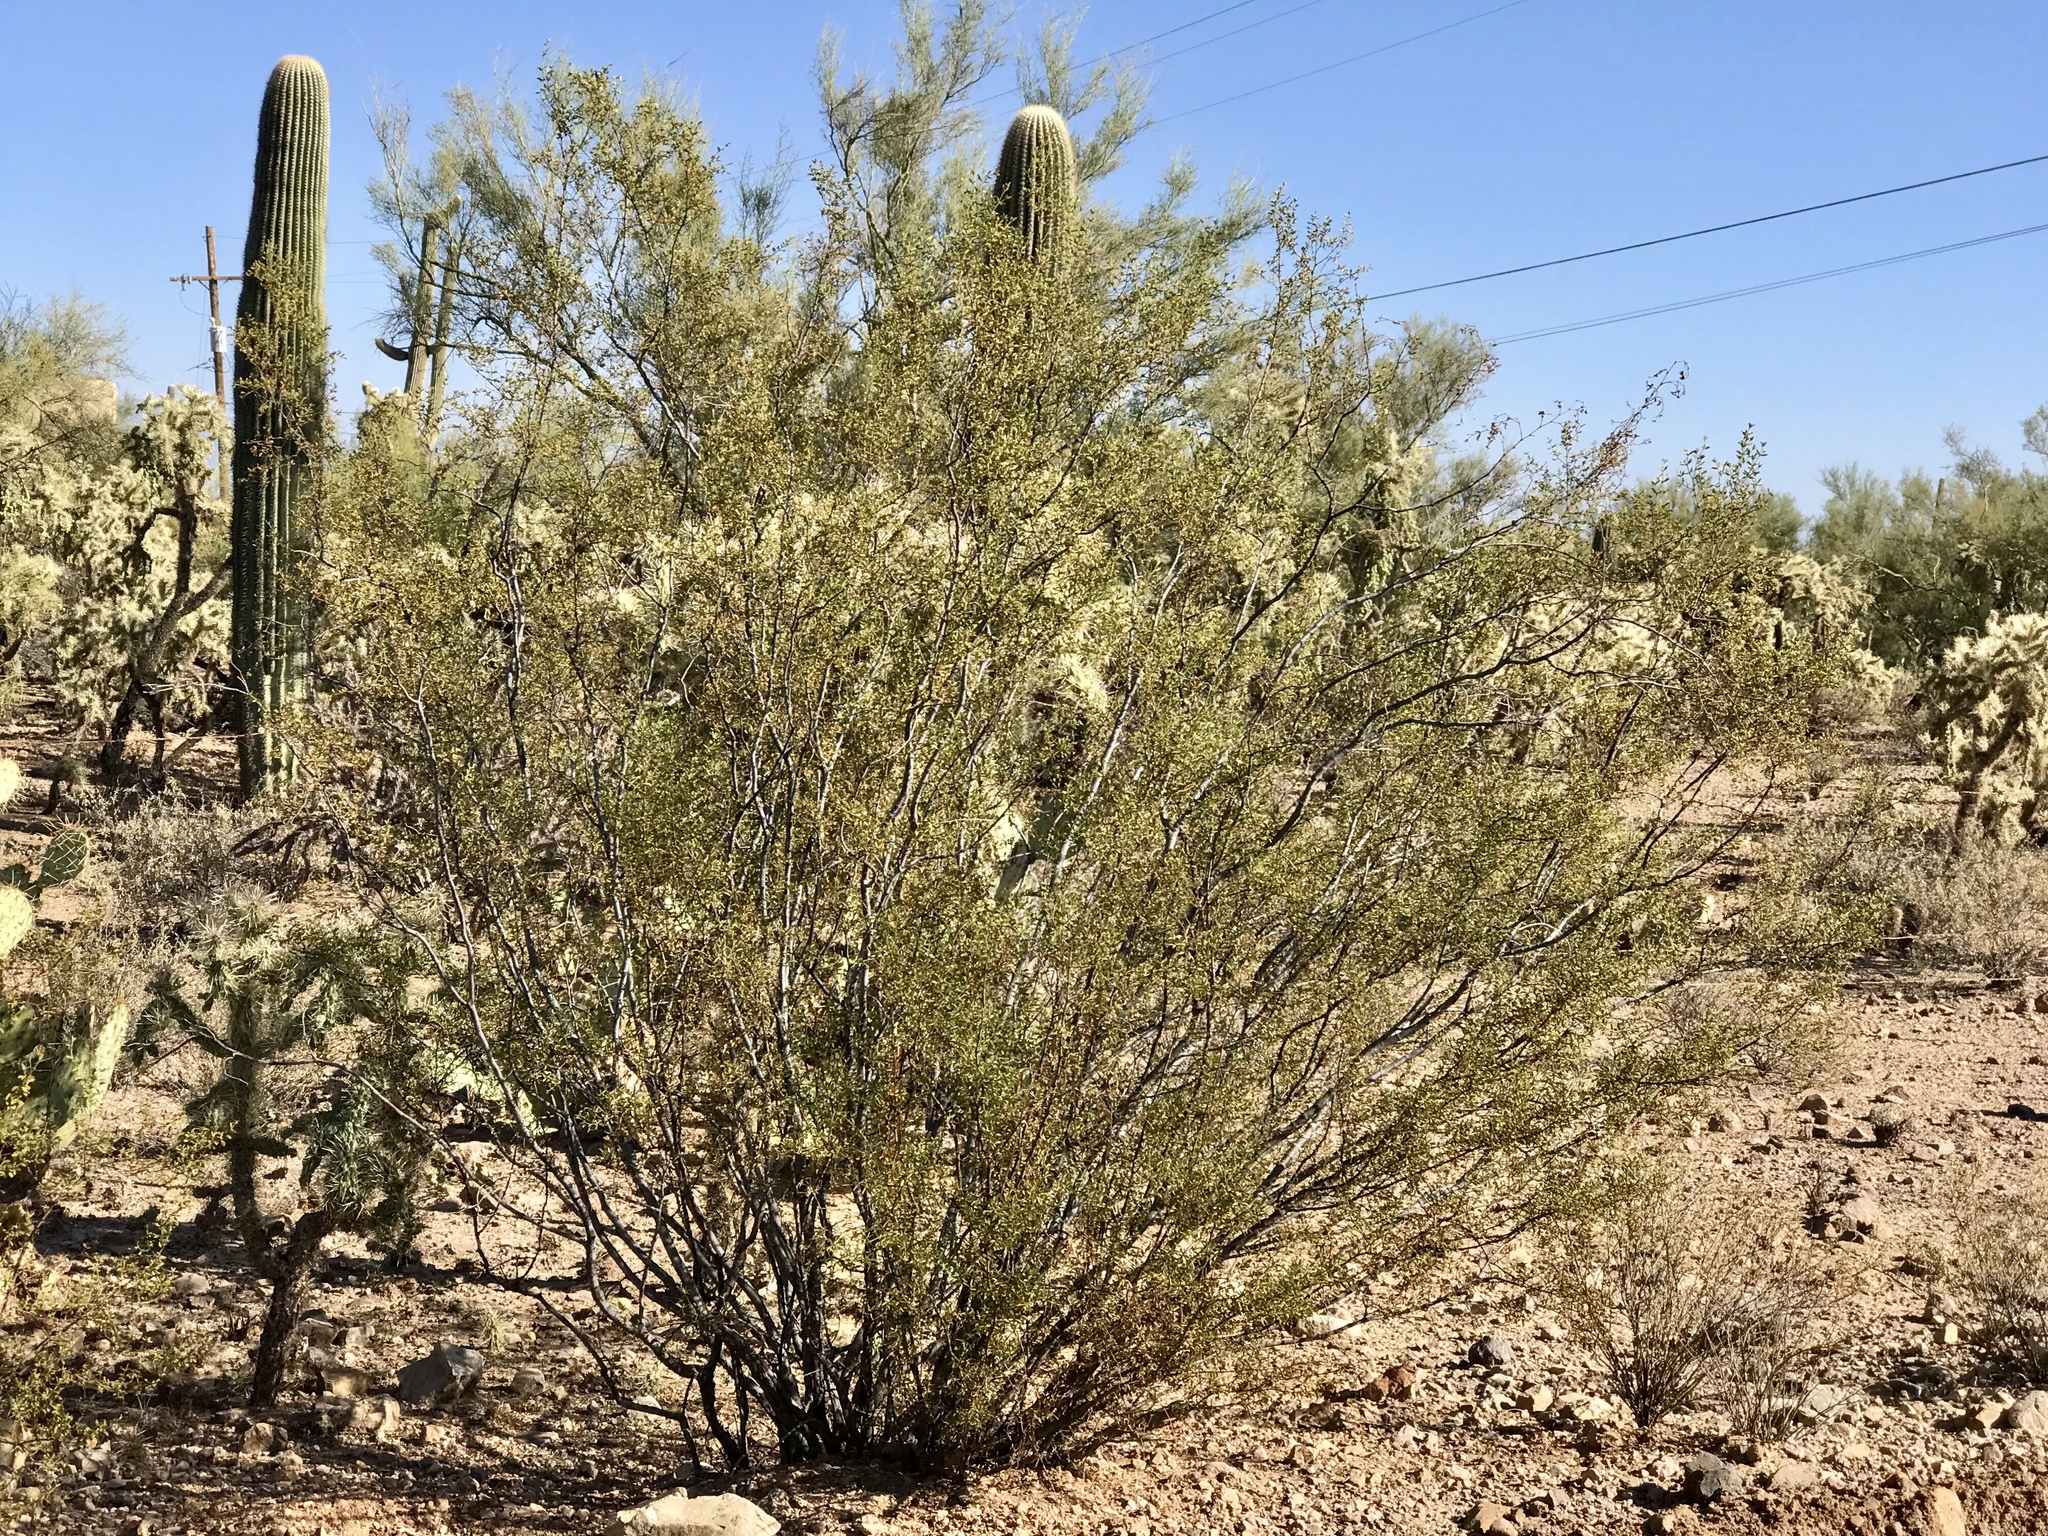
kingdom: Plantae
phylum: Tracheophyta
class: Magnoliopsida
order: Zygophyllales
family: Zygophyllaceae
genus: Larrea
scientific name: Larrea tridentata
